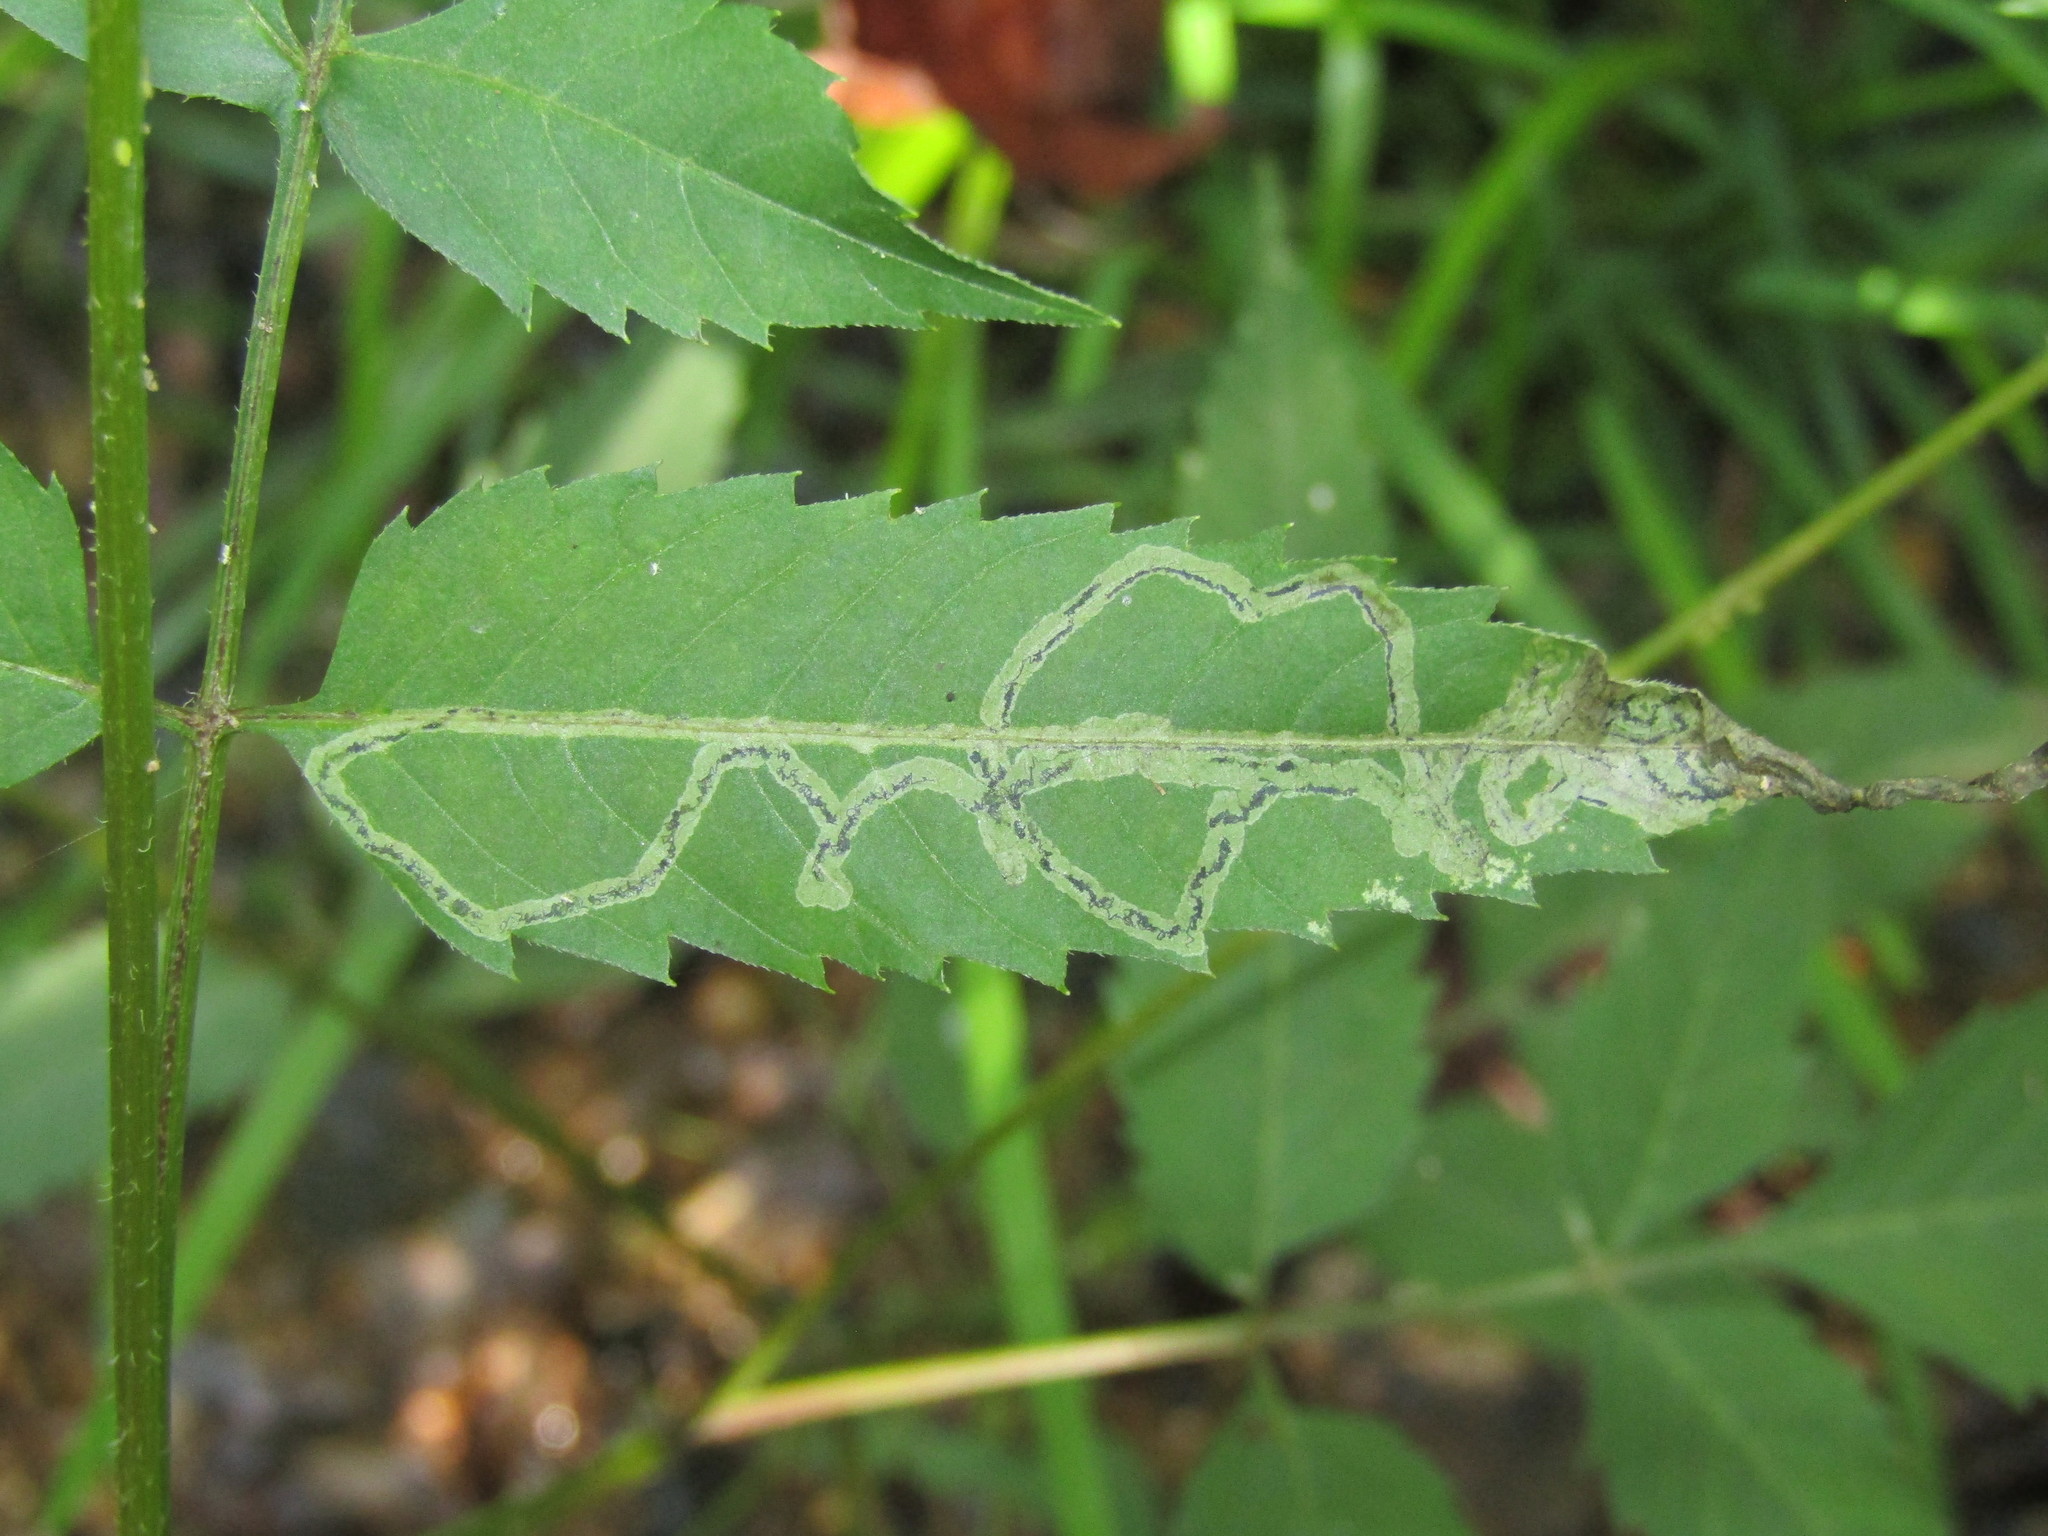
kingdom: Animalia
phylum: Arthropoda
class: Insecta
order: Diptera
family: Agromyzidae
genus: Liriomyza
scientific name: Liriomyza carphephori
